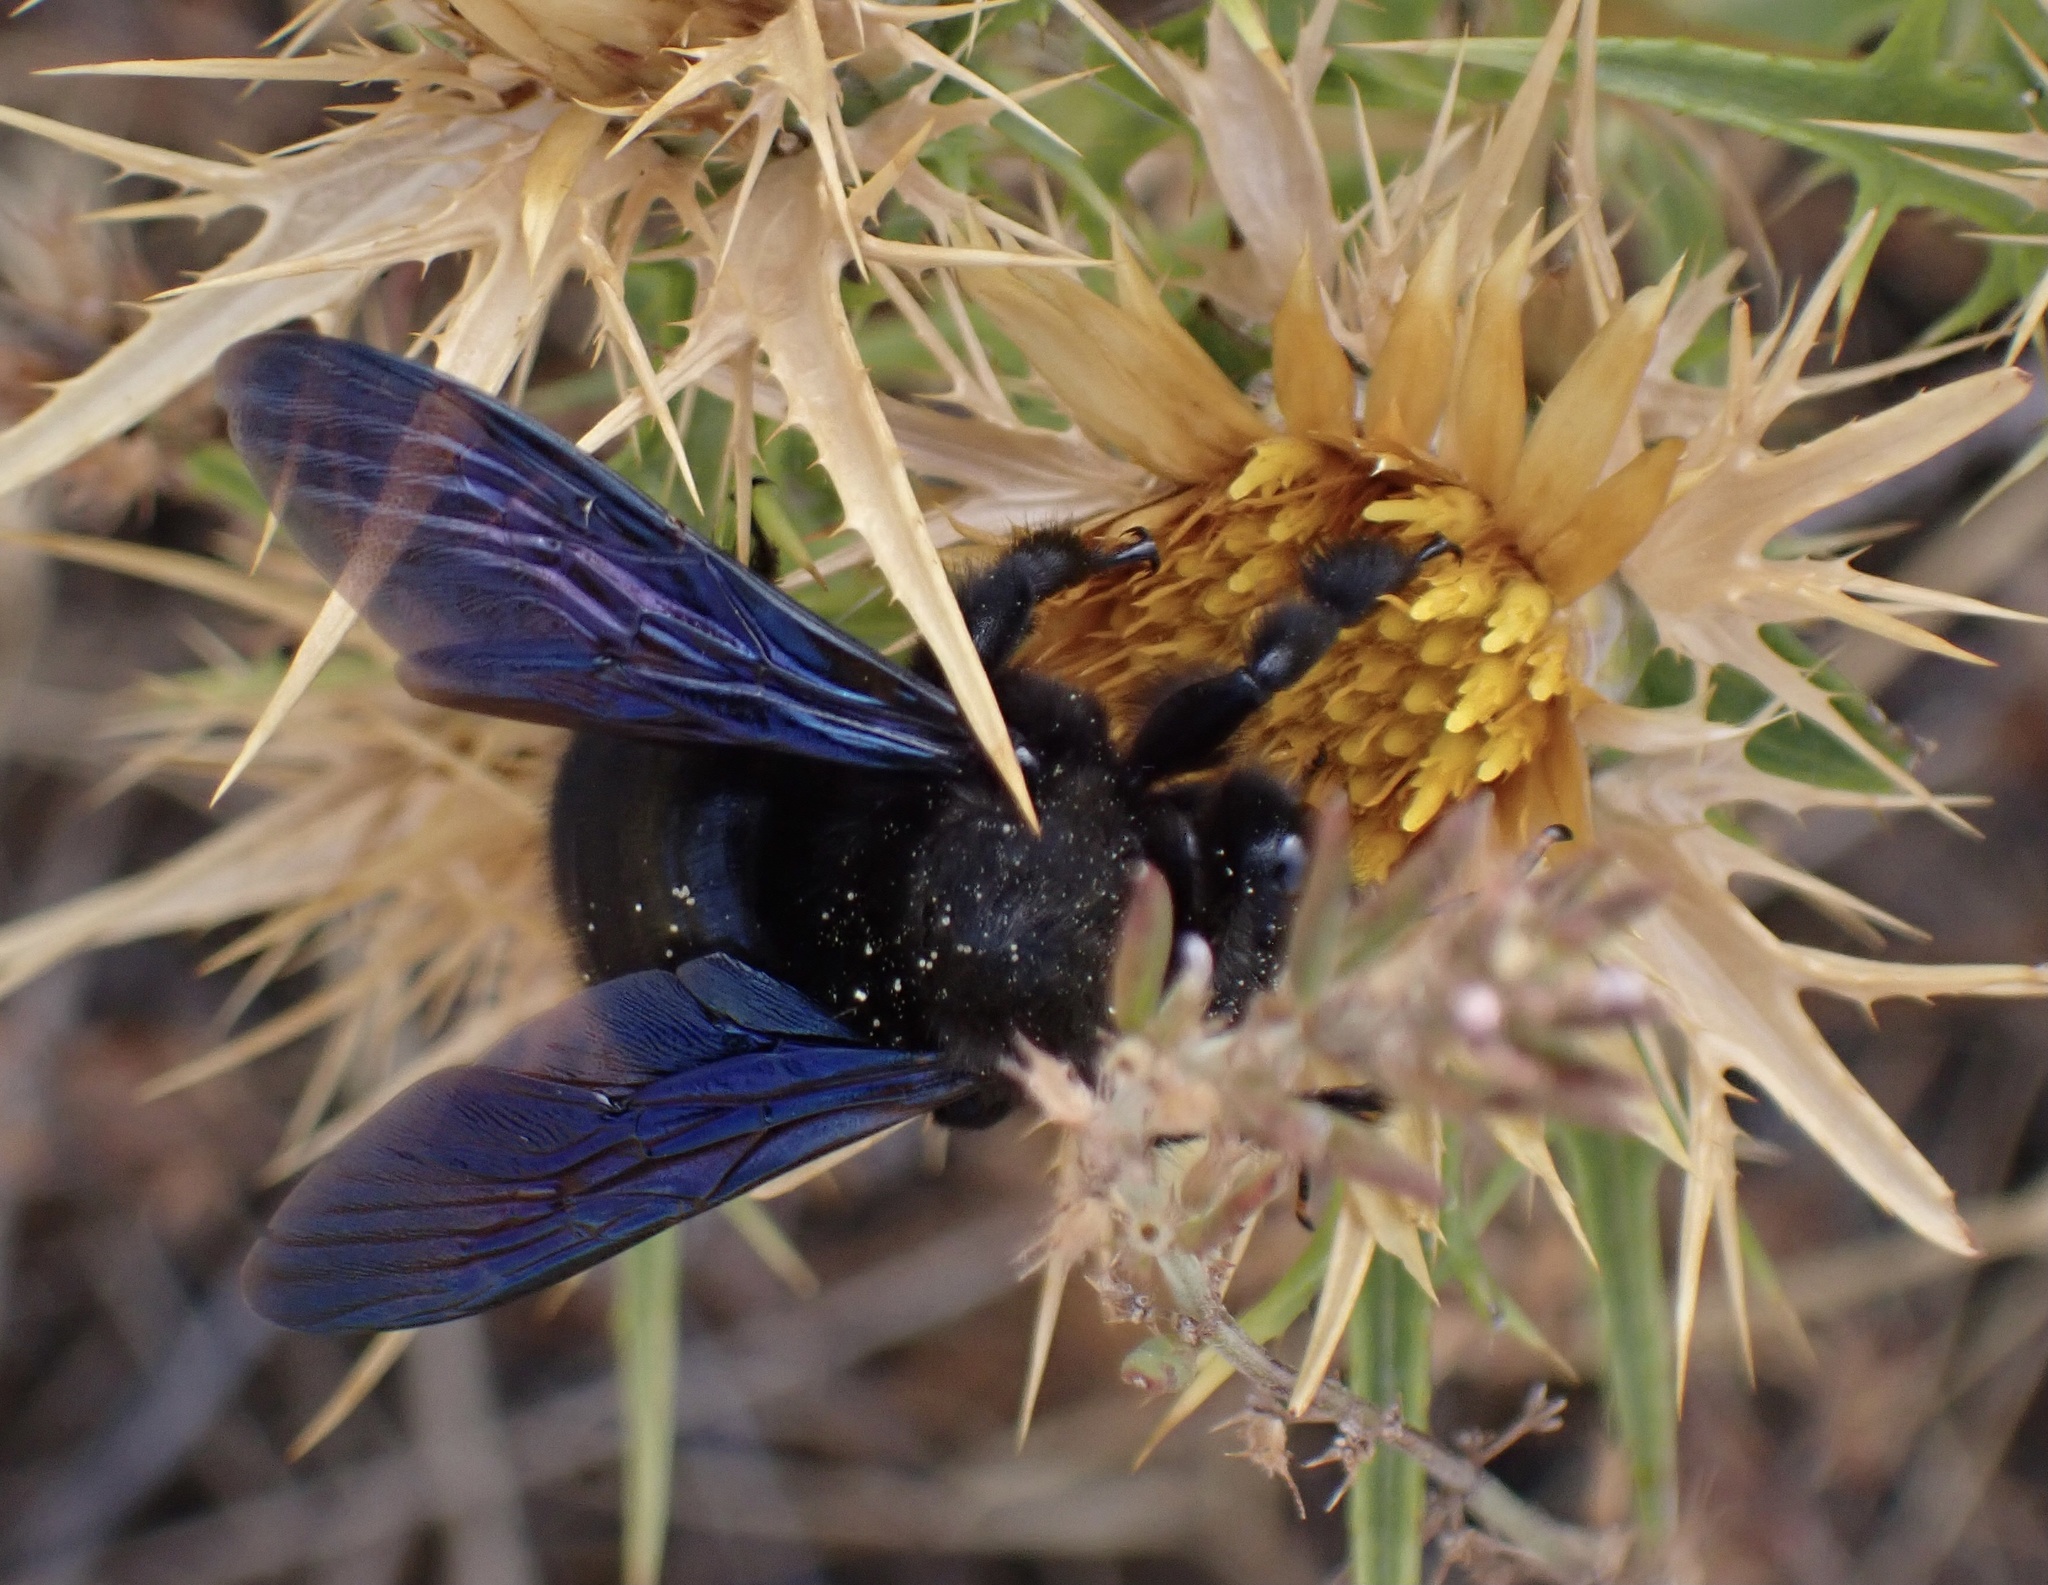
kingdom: Animalia
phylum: Arthropoda
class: Insecta
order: Hymenoptera
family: Apidae
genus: Xylocopa
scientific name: Xylocopa violacea
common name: Violet carpenter bee
